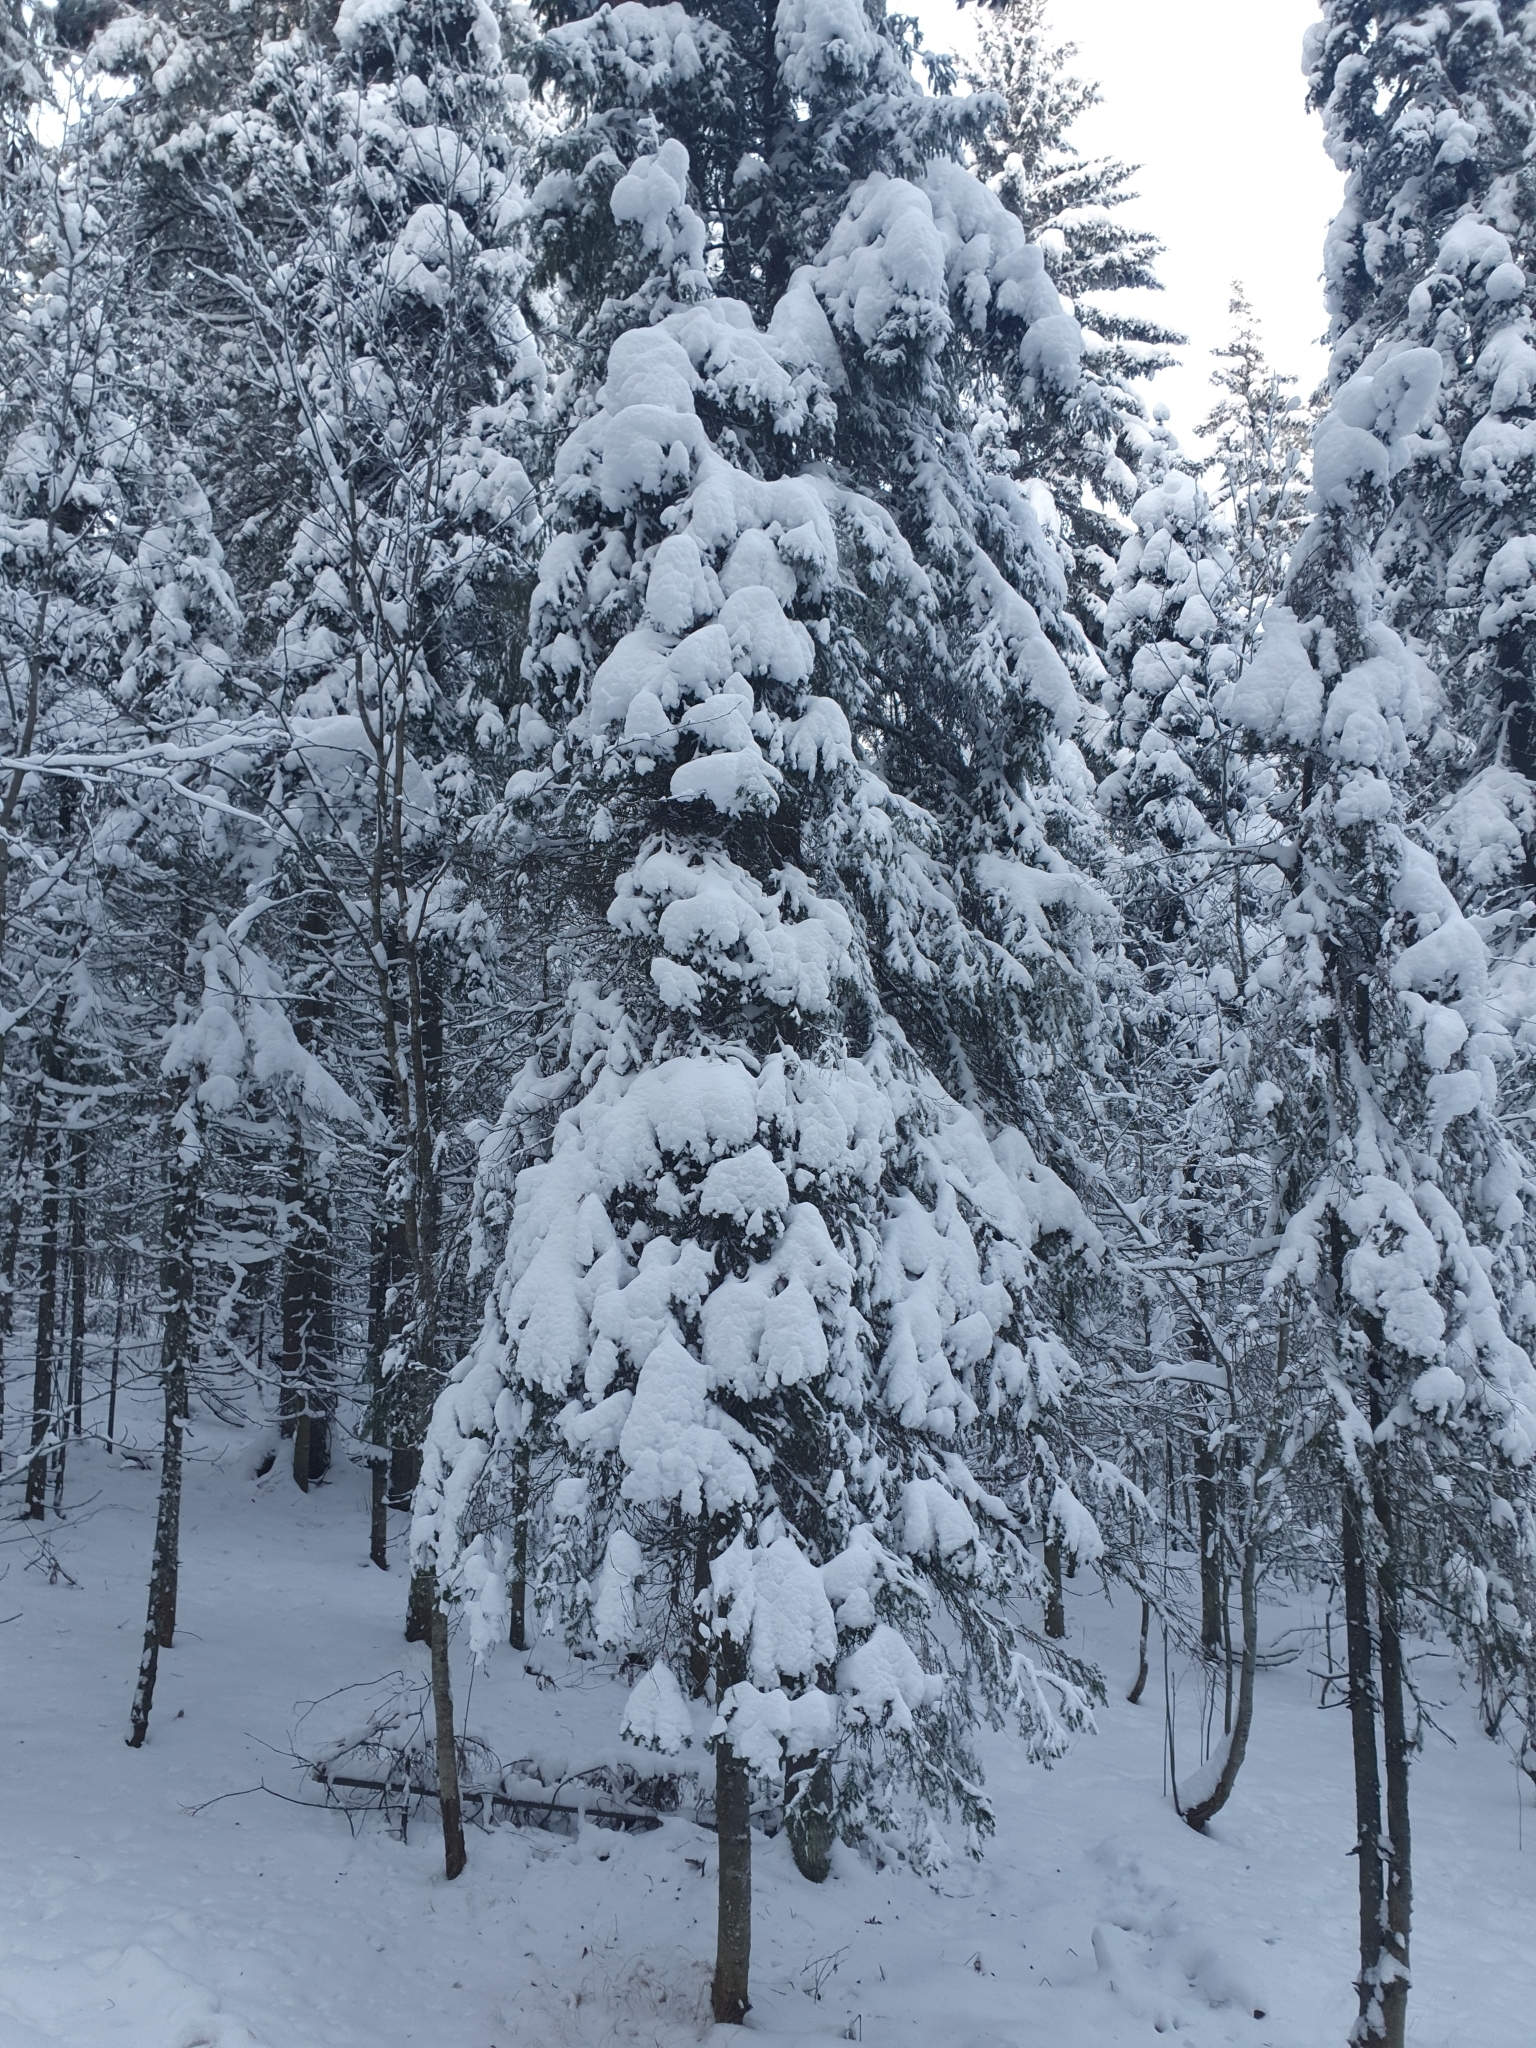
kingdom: Plantae
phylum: Tracheophyta
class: Pinopsida
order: Pinales
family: Pinaceae
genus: Picea
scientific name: Picea obovata
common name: Siberian spruce
